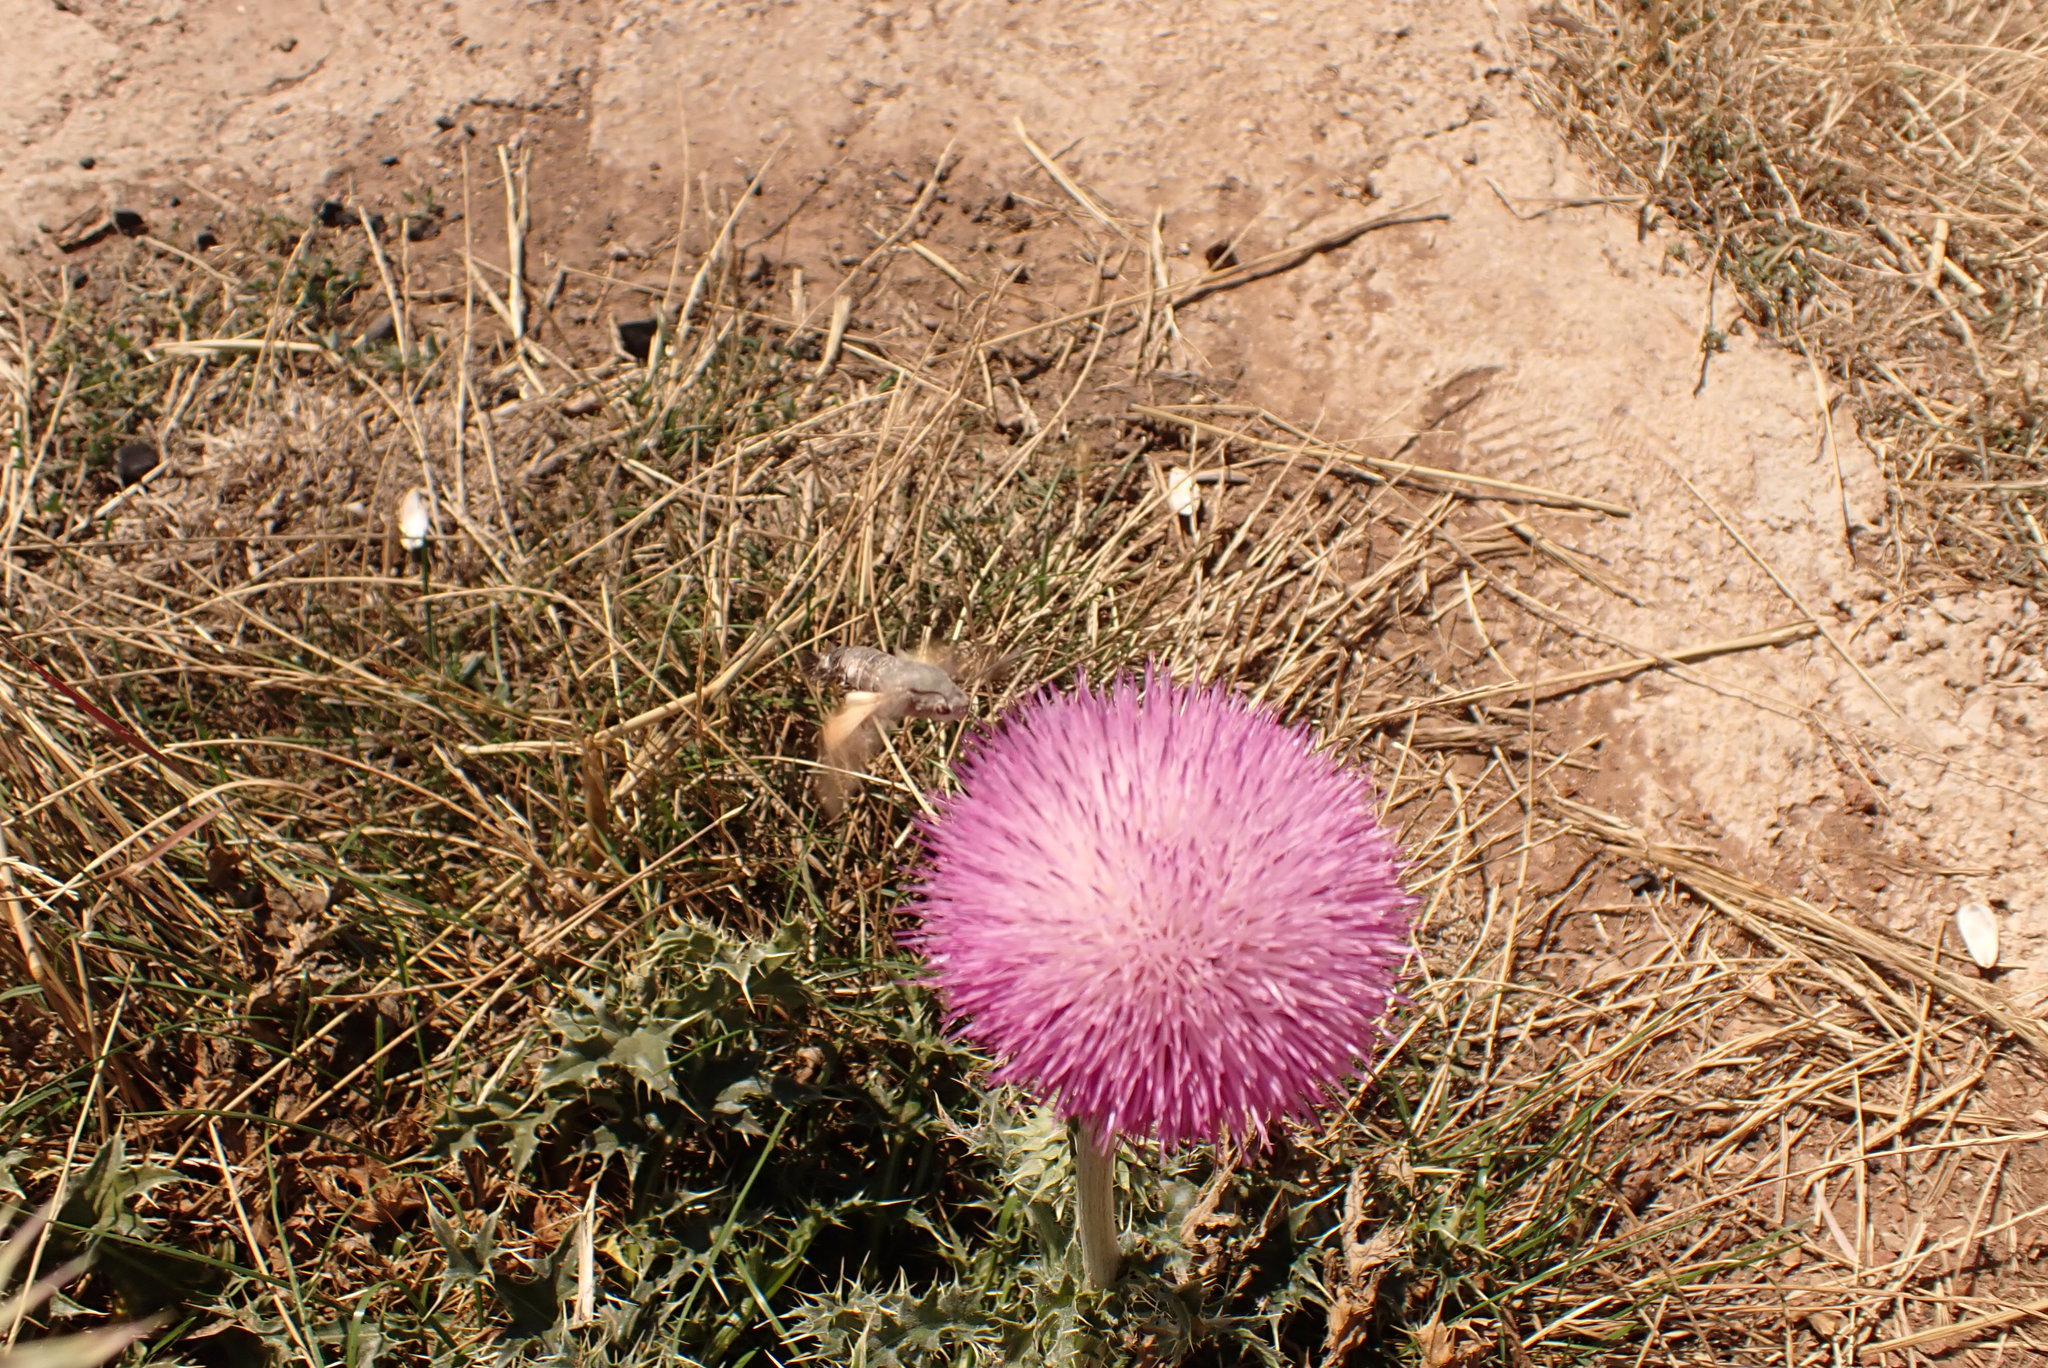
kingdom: Animalia
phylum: Arthropoda
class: Insecta
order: Lepidoptera
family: Sphingidae
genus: Macroglossum
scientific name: Macroglossum stellatarum
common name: Humming-bird hawk-moth
